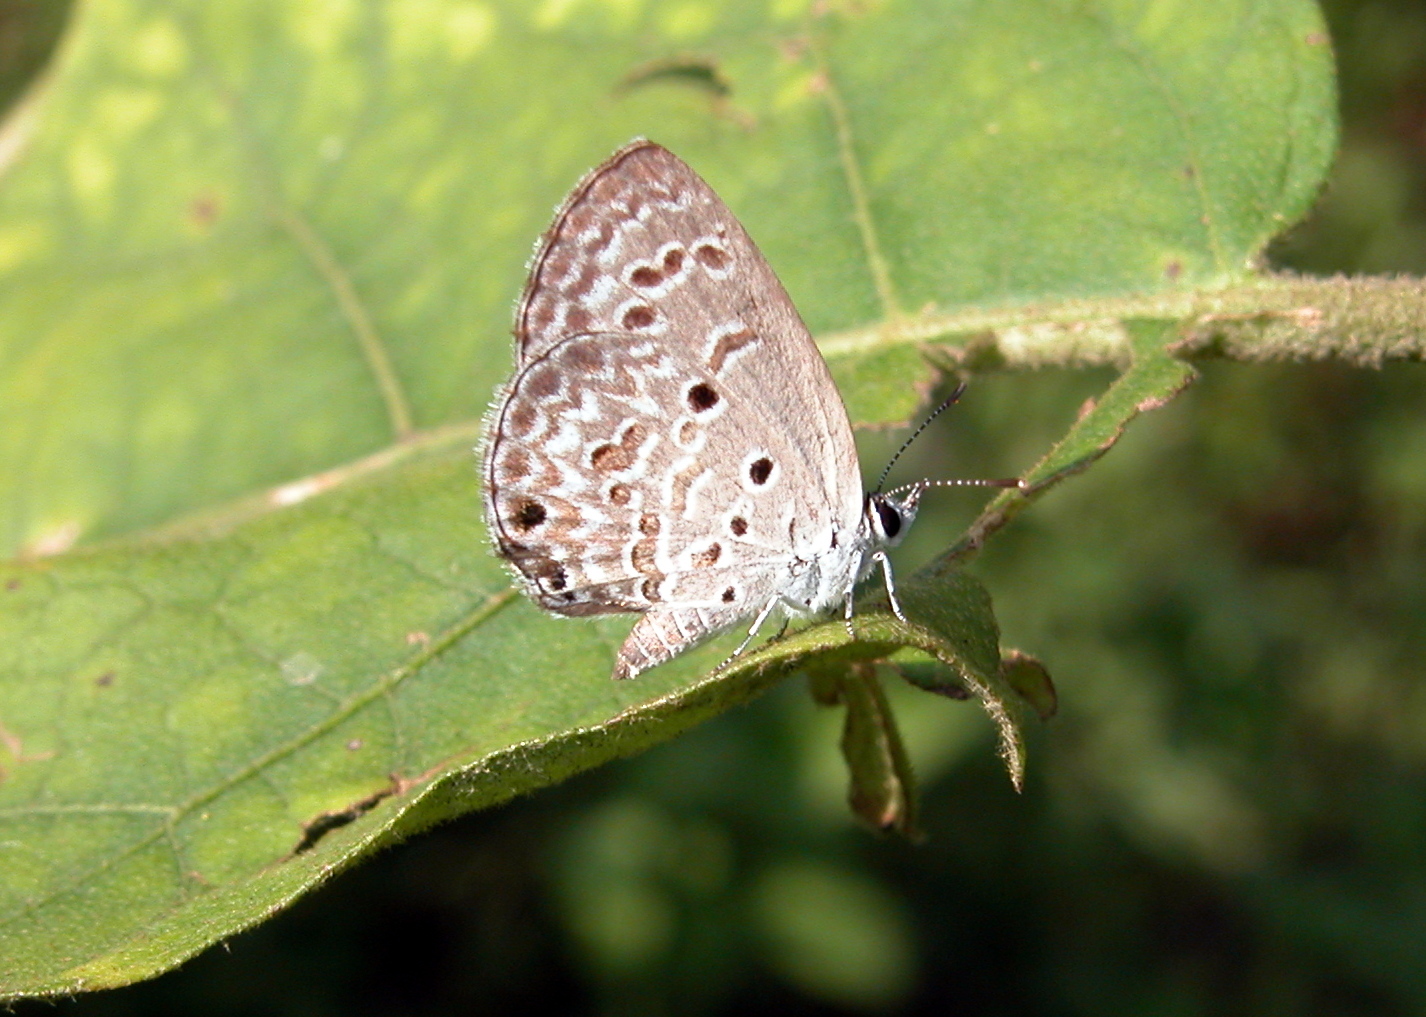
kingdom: Animalia
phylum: Arthropoda
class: Insecta
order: Lepidoptera
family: Lycaenidae
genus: Chilades
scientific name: Chilades laius
